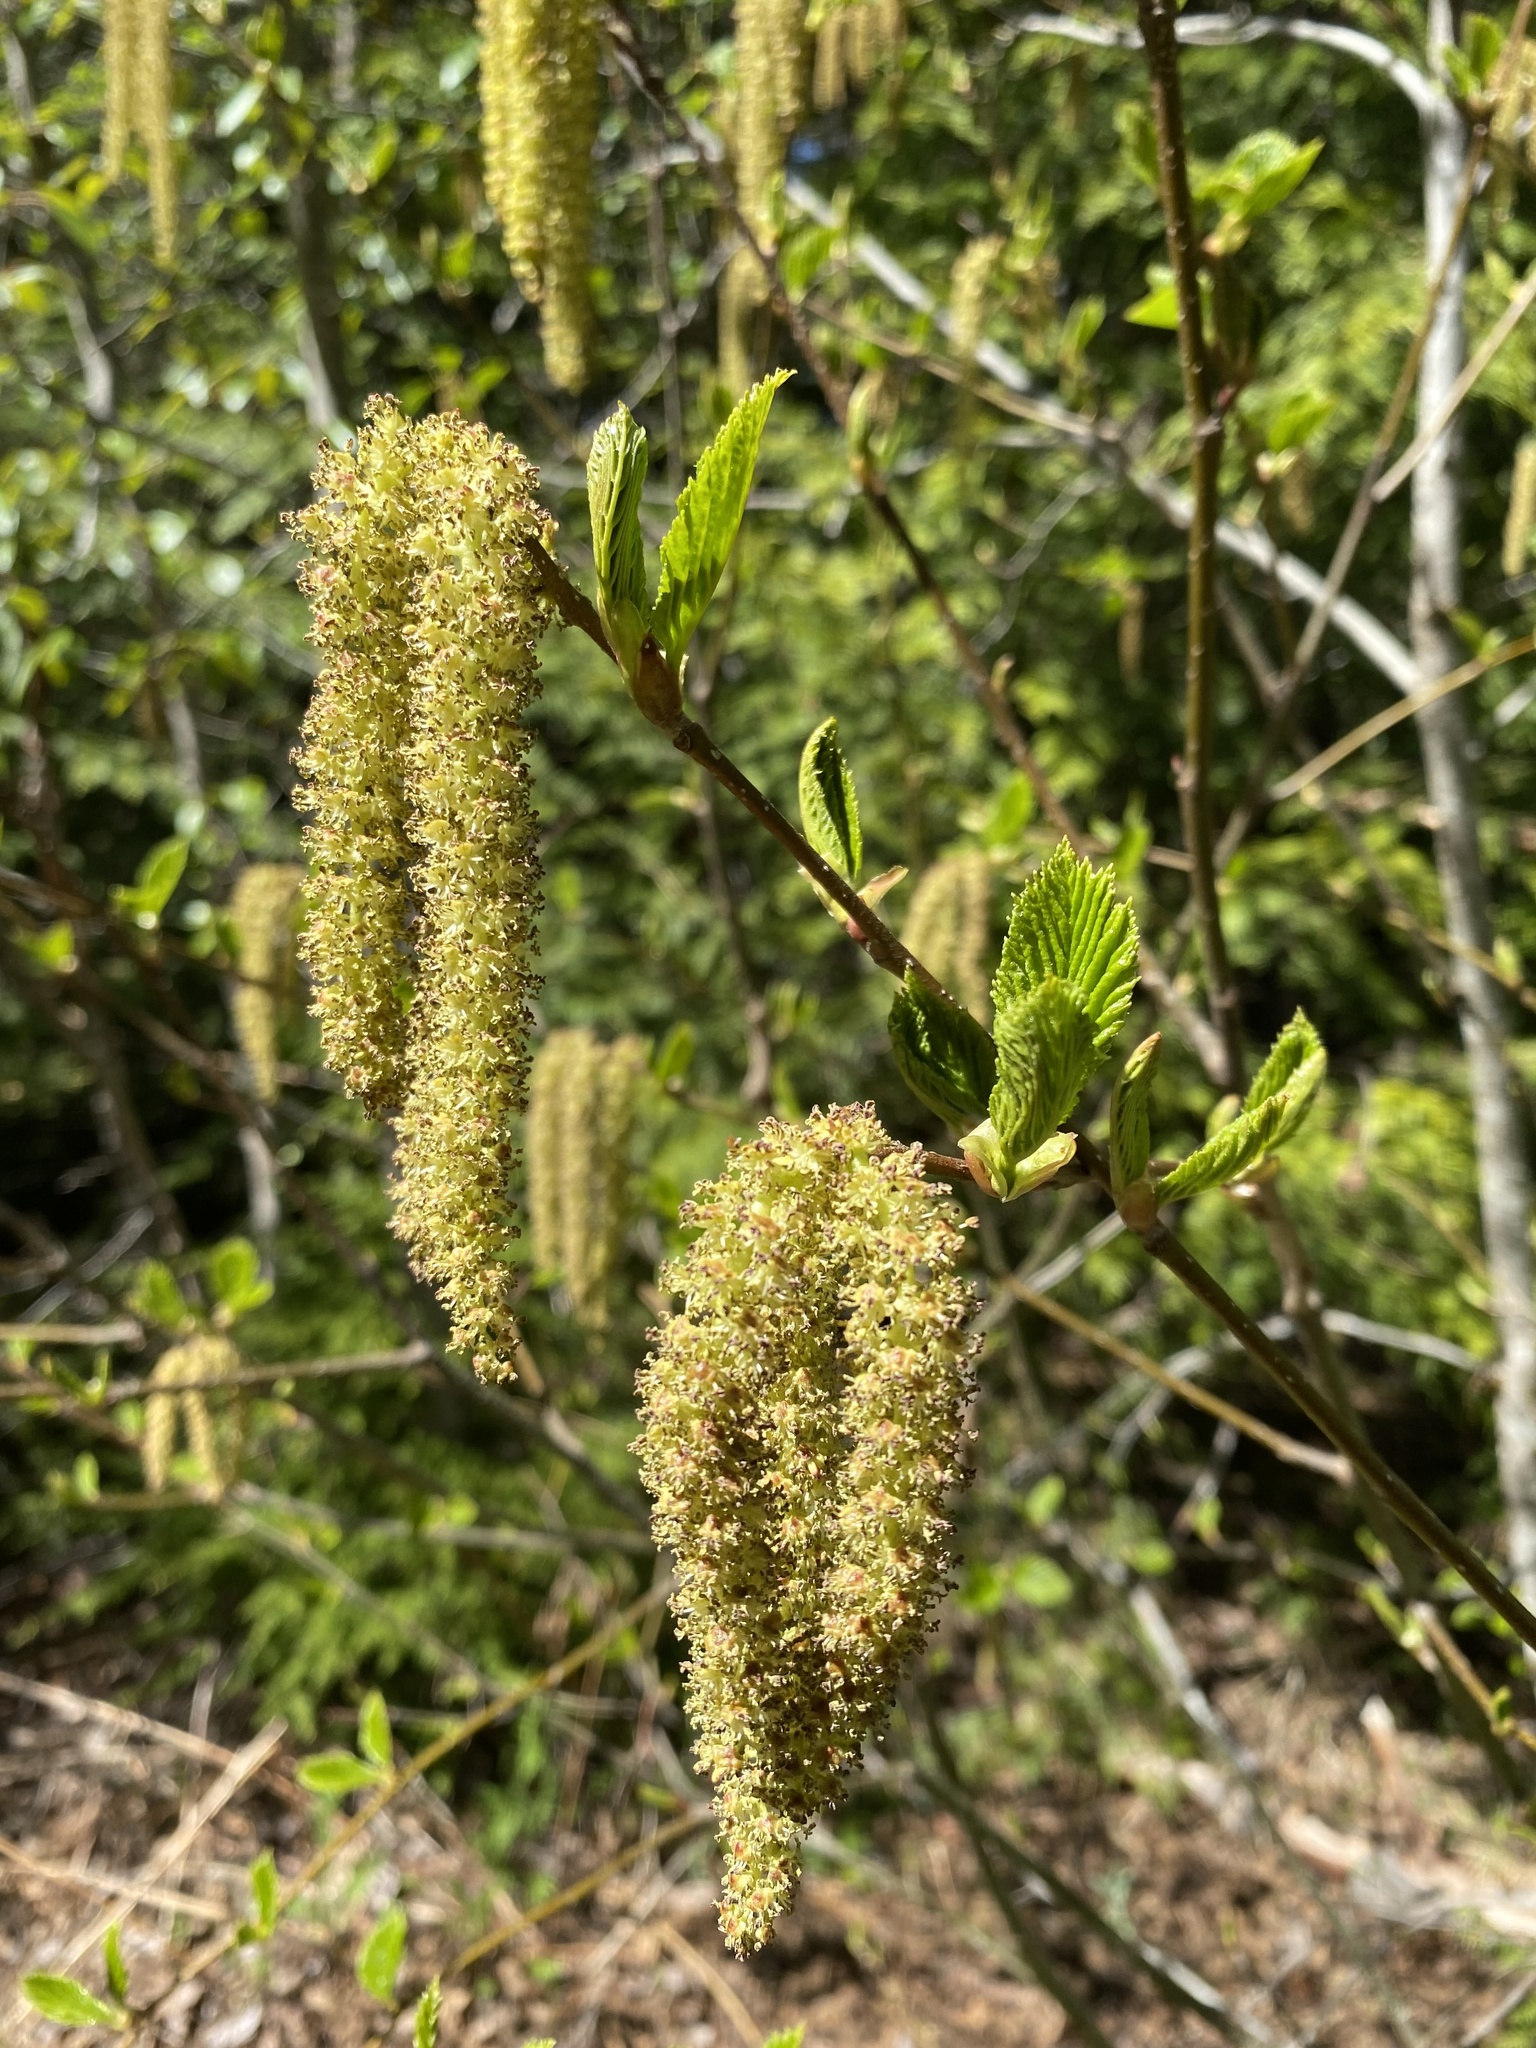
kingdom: Plantae
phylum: Tracheophyta
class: Magnoliopsida
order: Fagales
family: Betulaceae
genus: Alnus
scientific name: Alnus alnobetula
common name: Green alder
